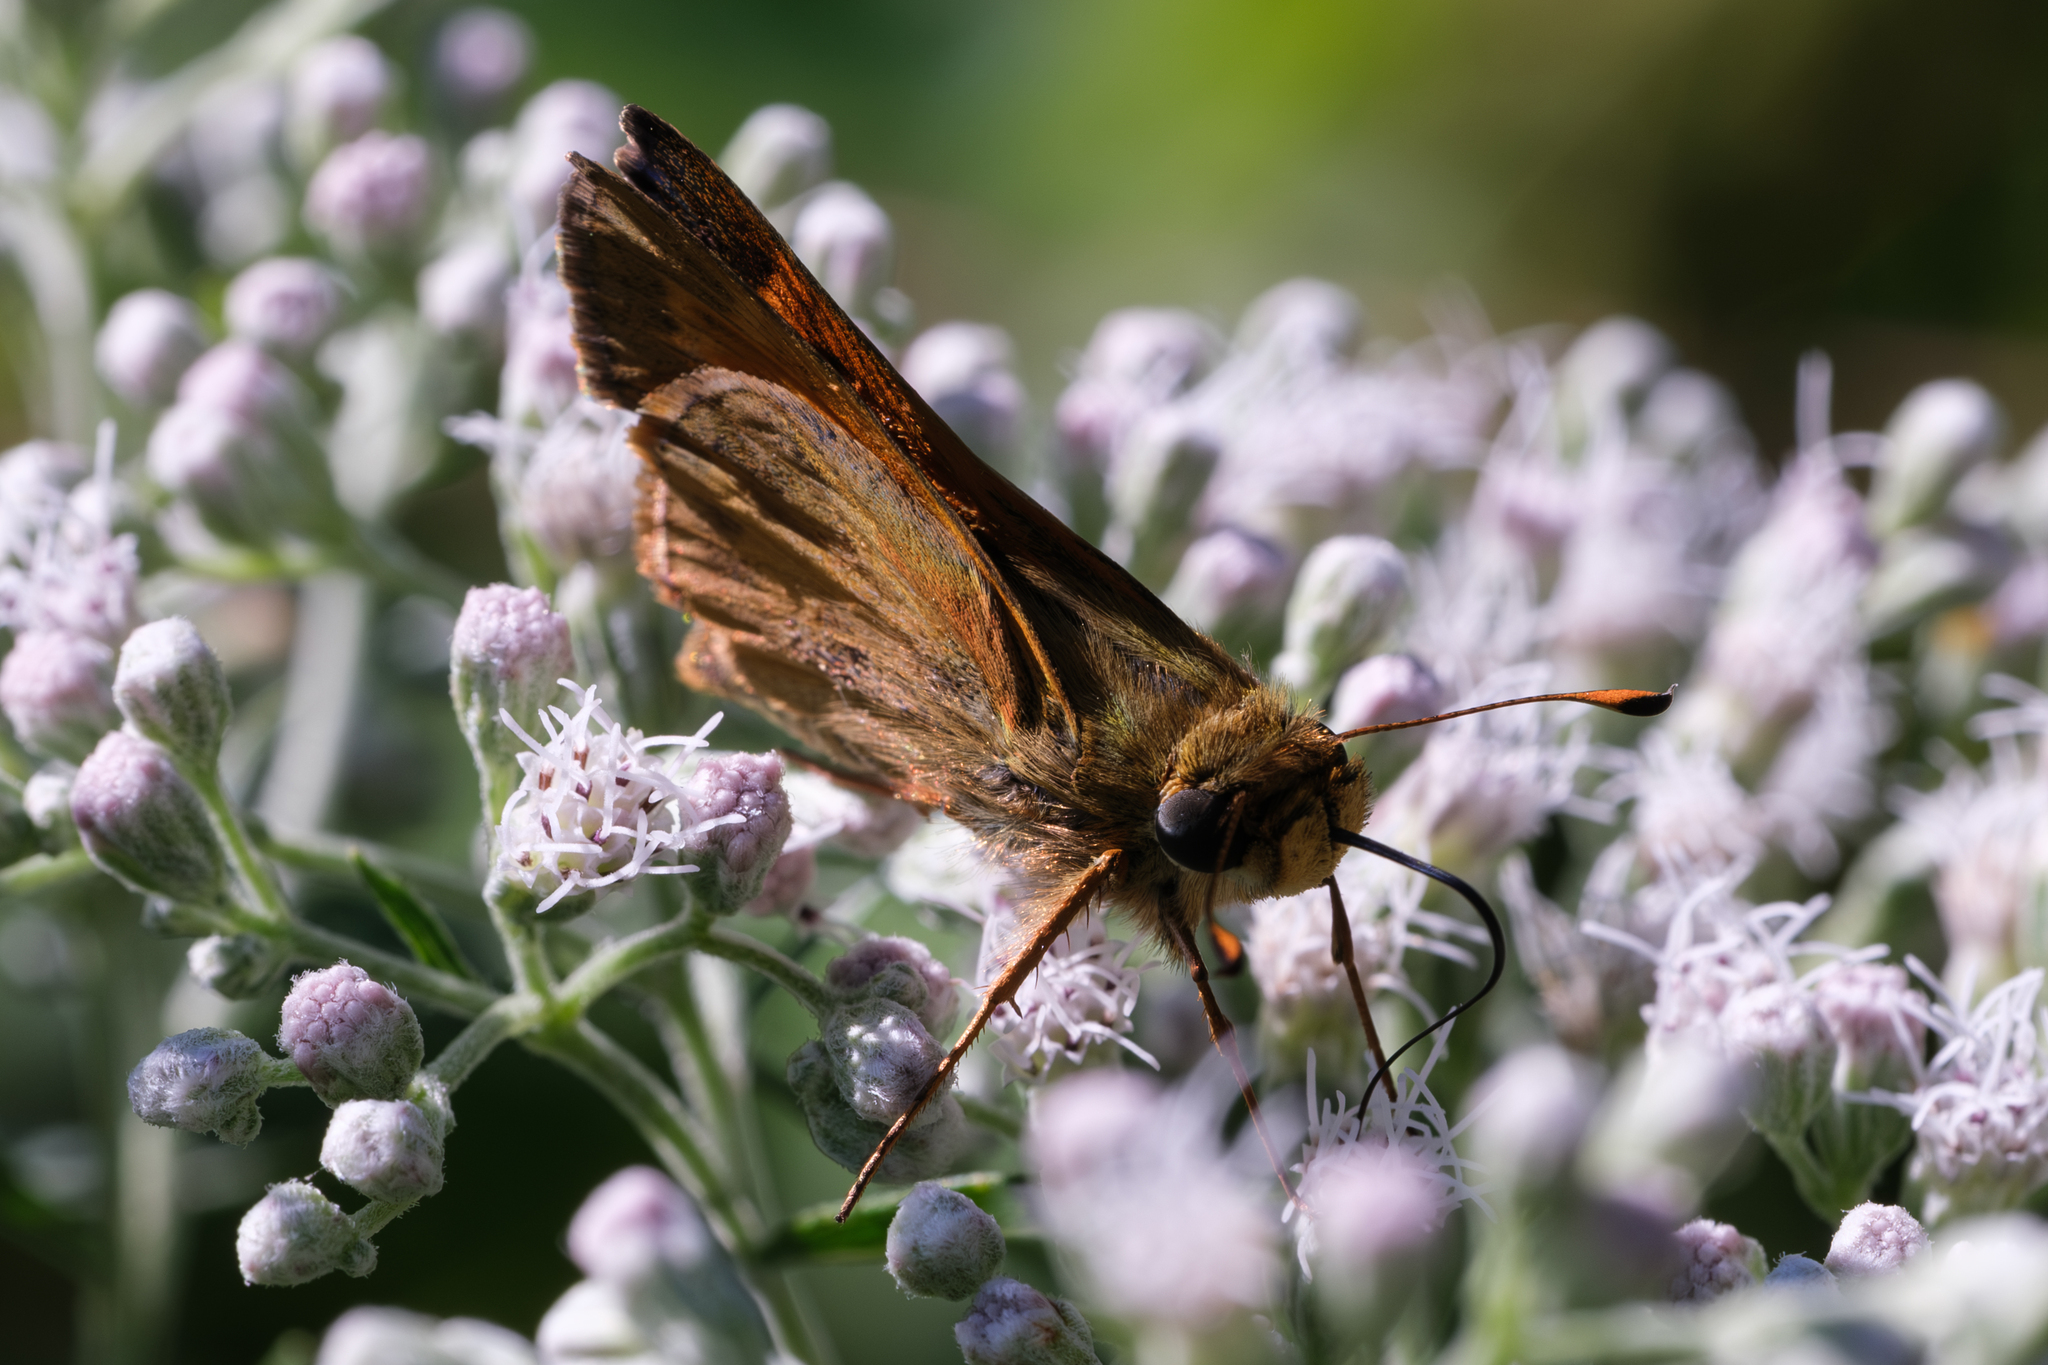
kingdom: Animalia
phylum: Arthropoda
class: Insecta
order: Lepidoptera
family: Hesperiidae
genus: Atalopedes
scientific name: Atalopedes
